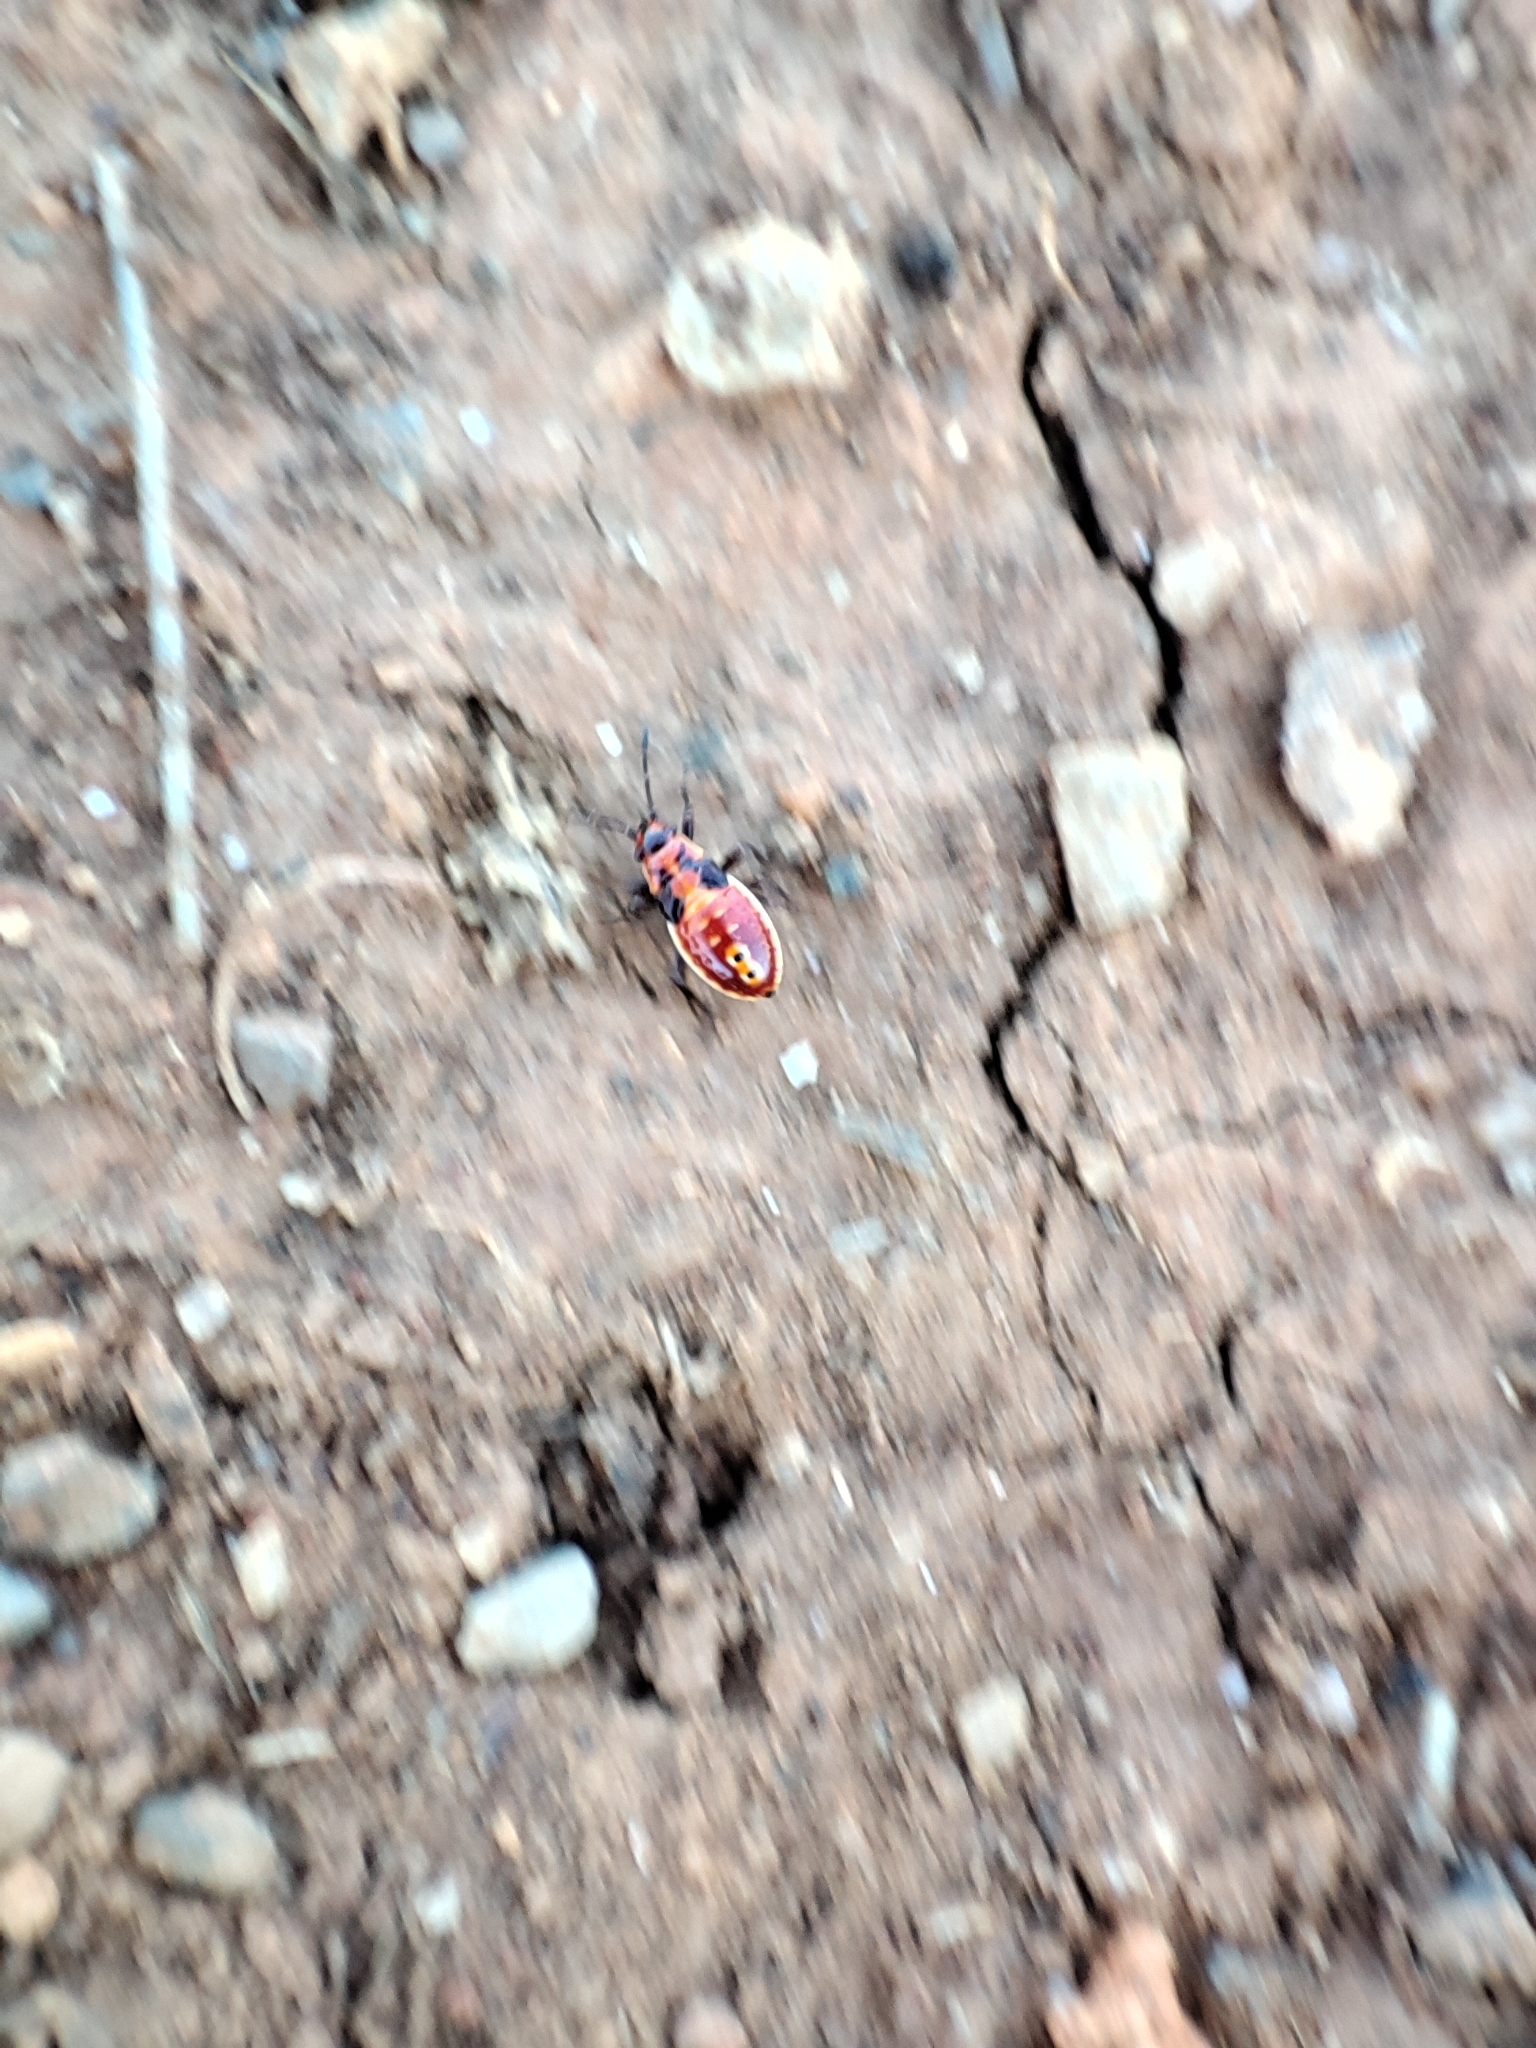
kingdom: Animalia
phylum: Arthropoda
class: Insecta
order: Hemiptera
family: Lygaeidae
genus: Spilostethus
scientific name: Spilostethus pandurus
